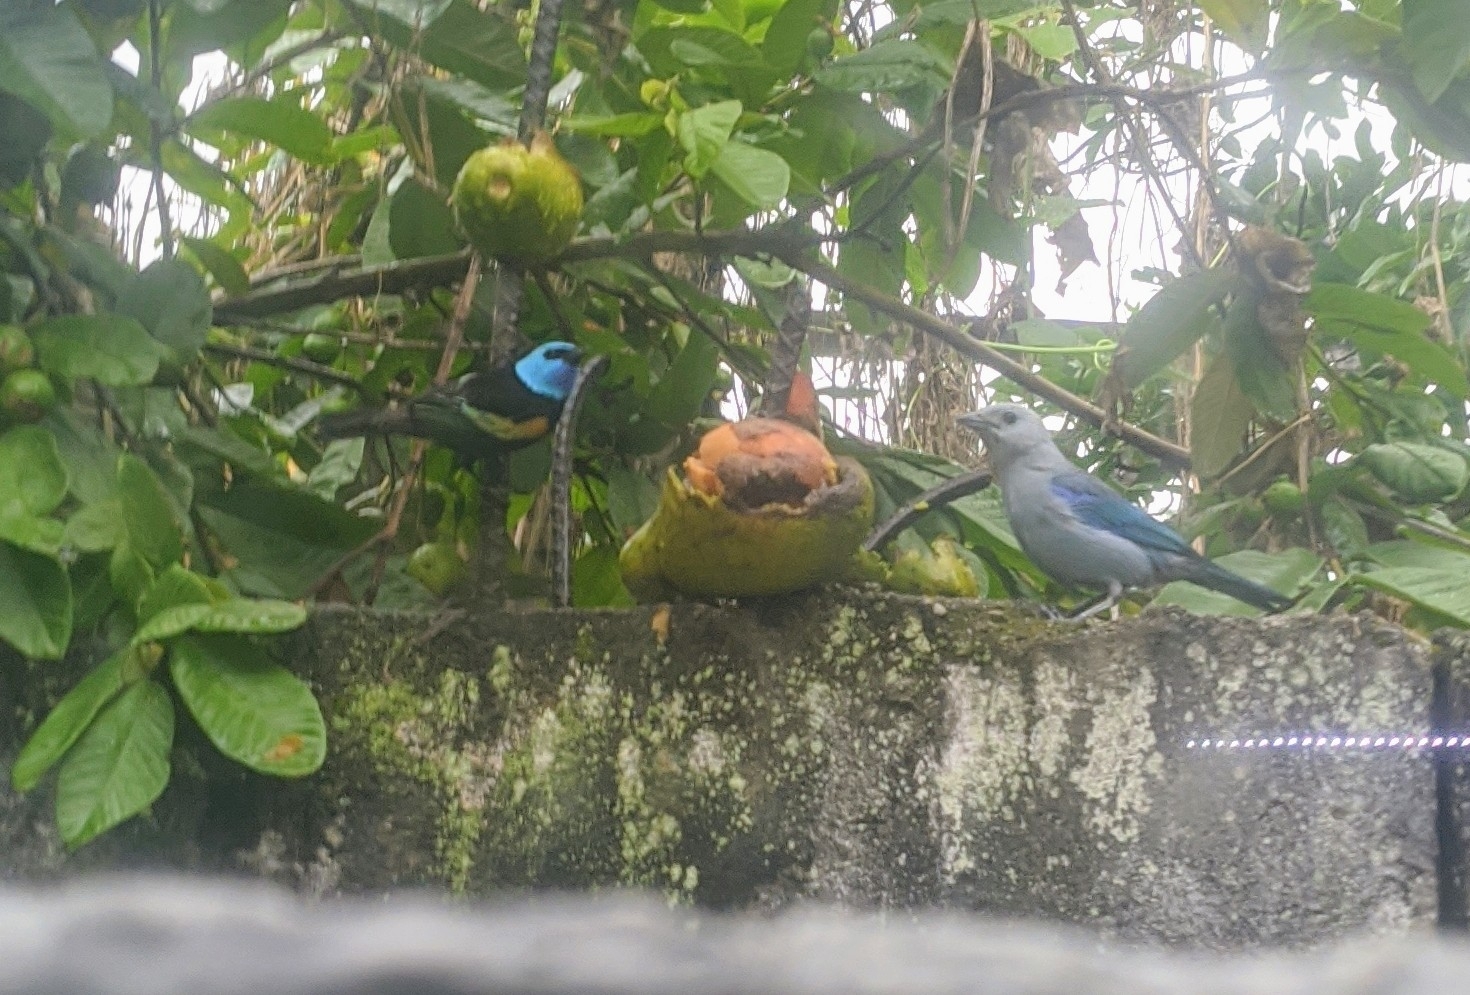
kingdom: Animalia
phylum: Chordata
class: Aves
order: Passeriformes
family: Thraupidae
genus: Stilpnia
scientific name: Stilpnia cyanicollis
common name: Blue-necked tanager
